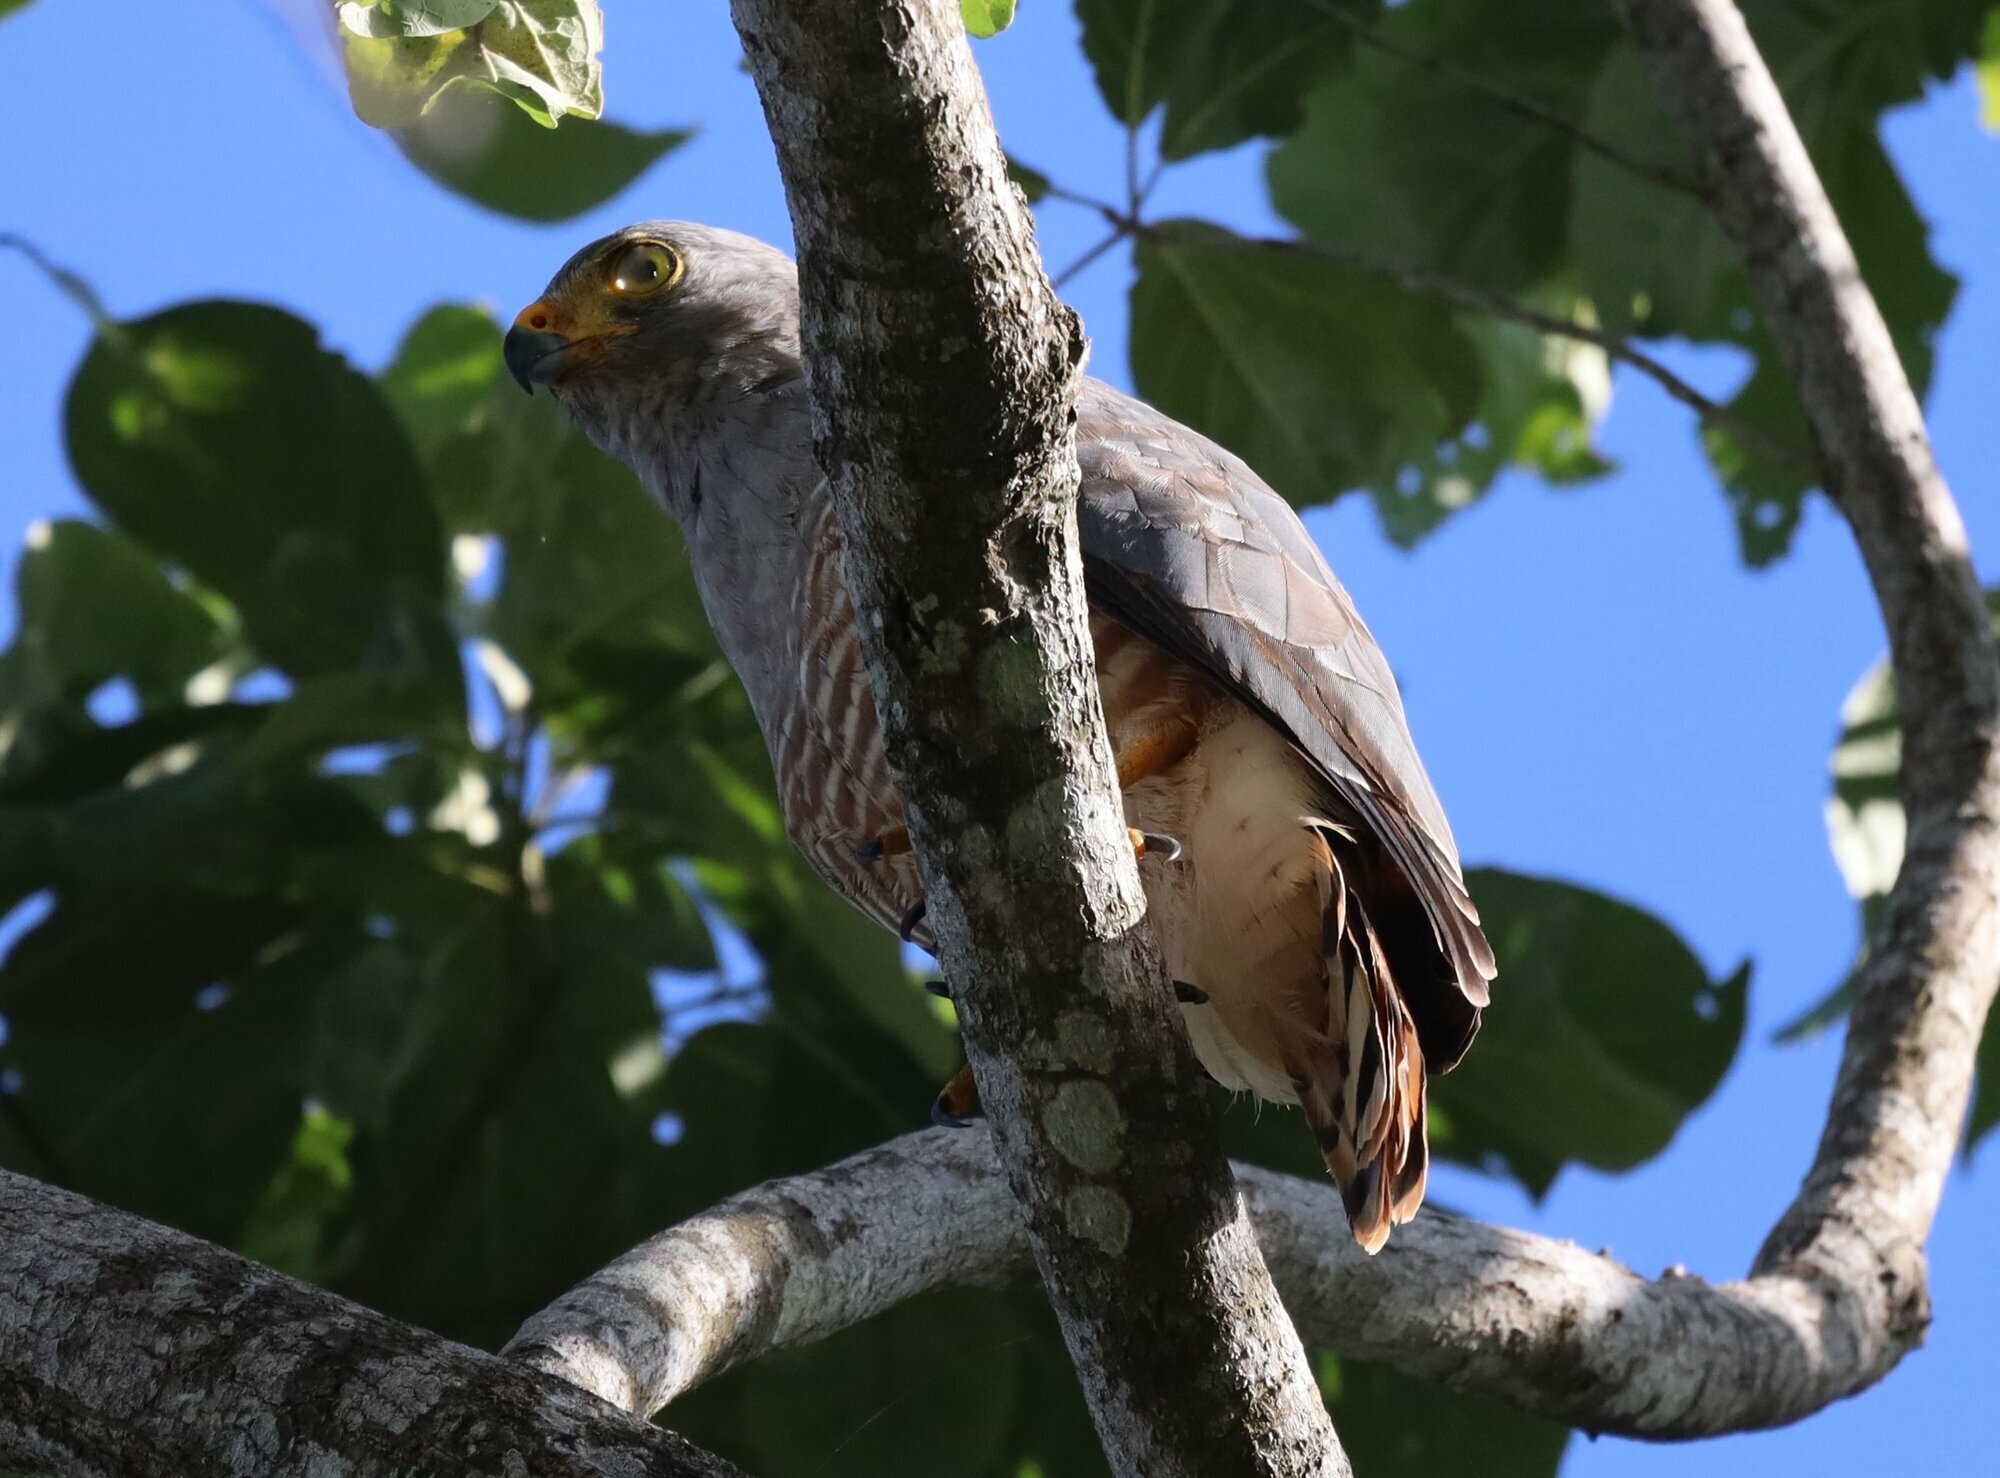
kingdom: Animalia
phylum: Chordata
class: Aves
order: Accipitriformes
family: Accipitridae
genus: Rupornis
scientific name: Rupornis magnirostris
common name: Roadside hawk
